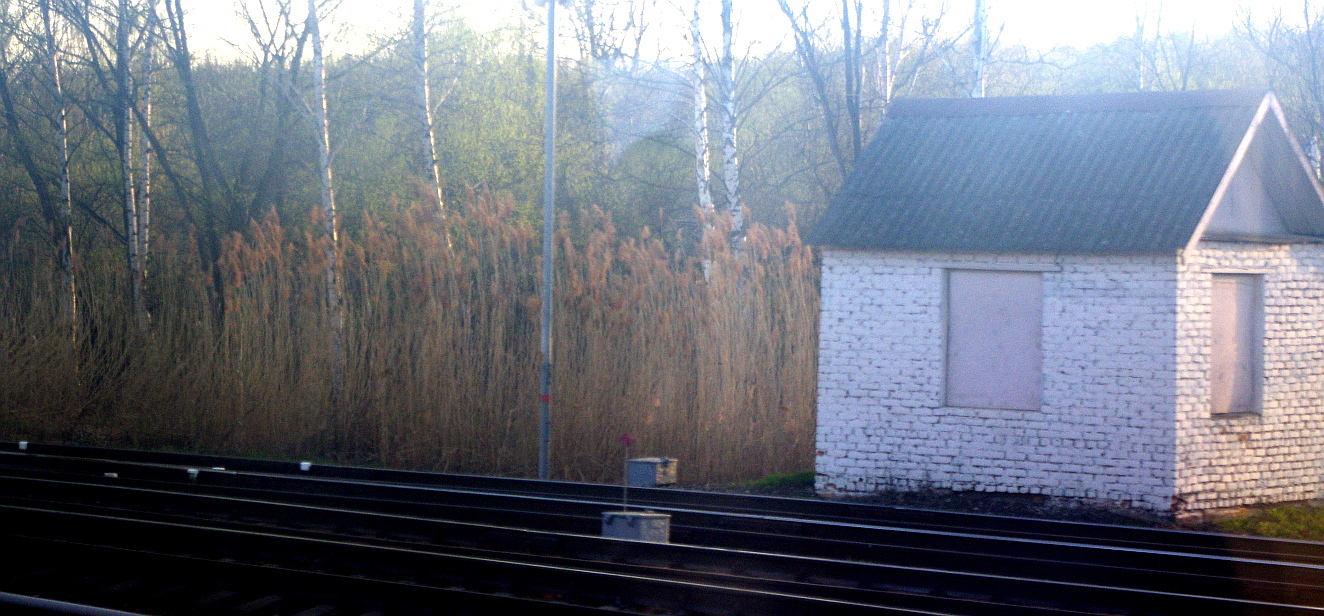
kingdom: Plantae
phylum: Tracheophyta
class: Liliopsida
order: Poales
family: Poaceae
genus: Phragmites
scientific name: Phragmites australis
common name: Common reed
